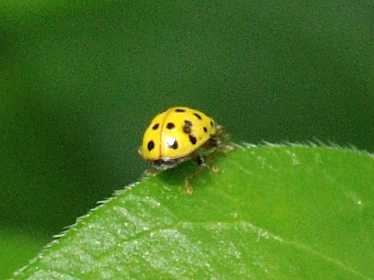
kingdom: Animalia
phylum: Arthropoda
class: Insecta
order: Coleoptera
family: Coccinellidae
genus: Psyllobora
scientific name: Psyllobora vigintiduopunctata
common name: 22-spot ladybird
